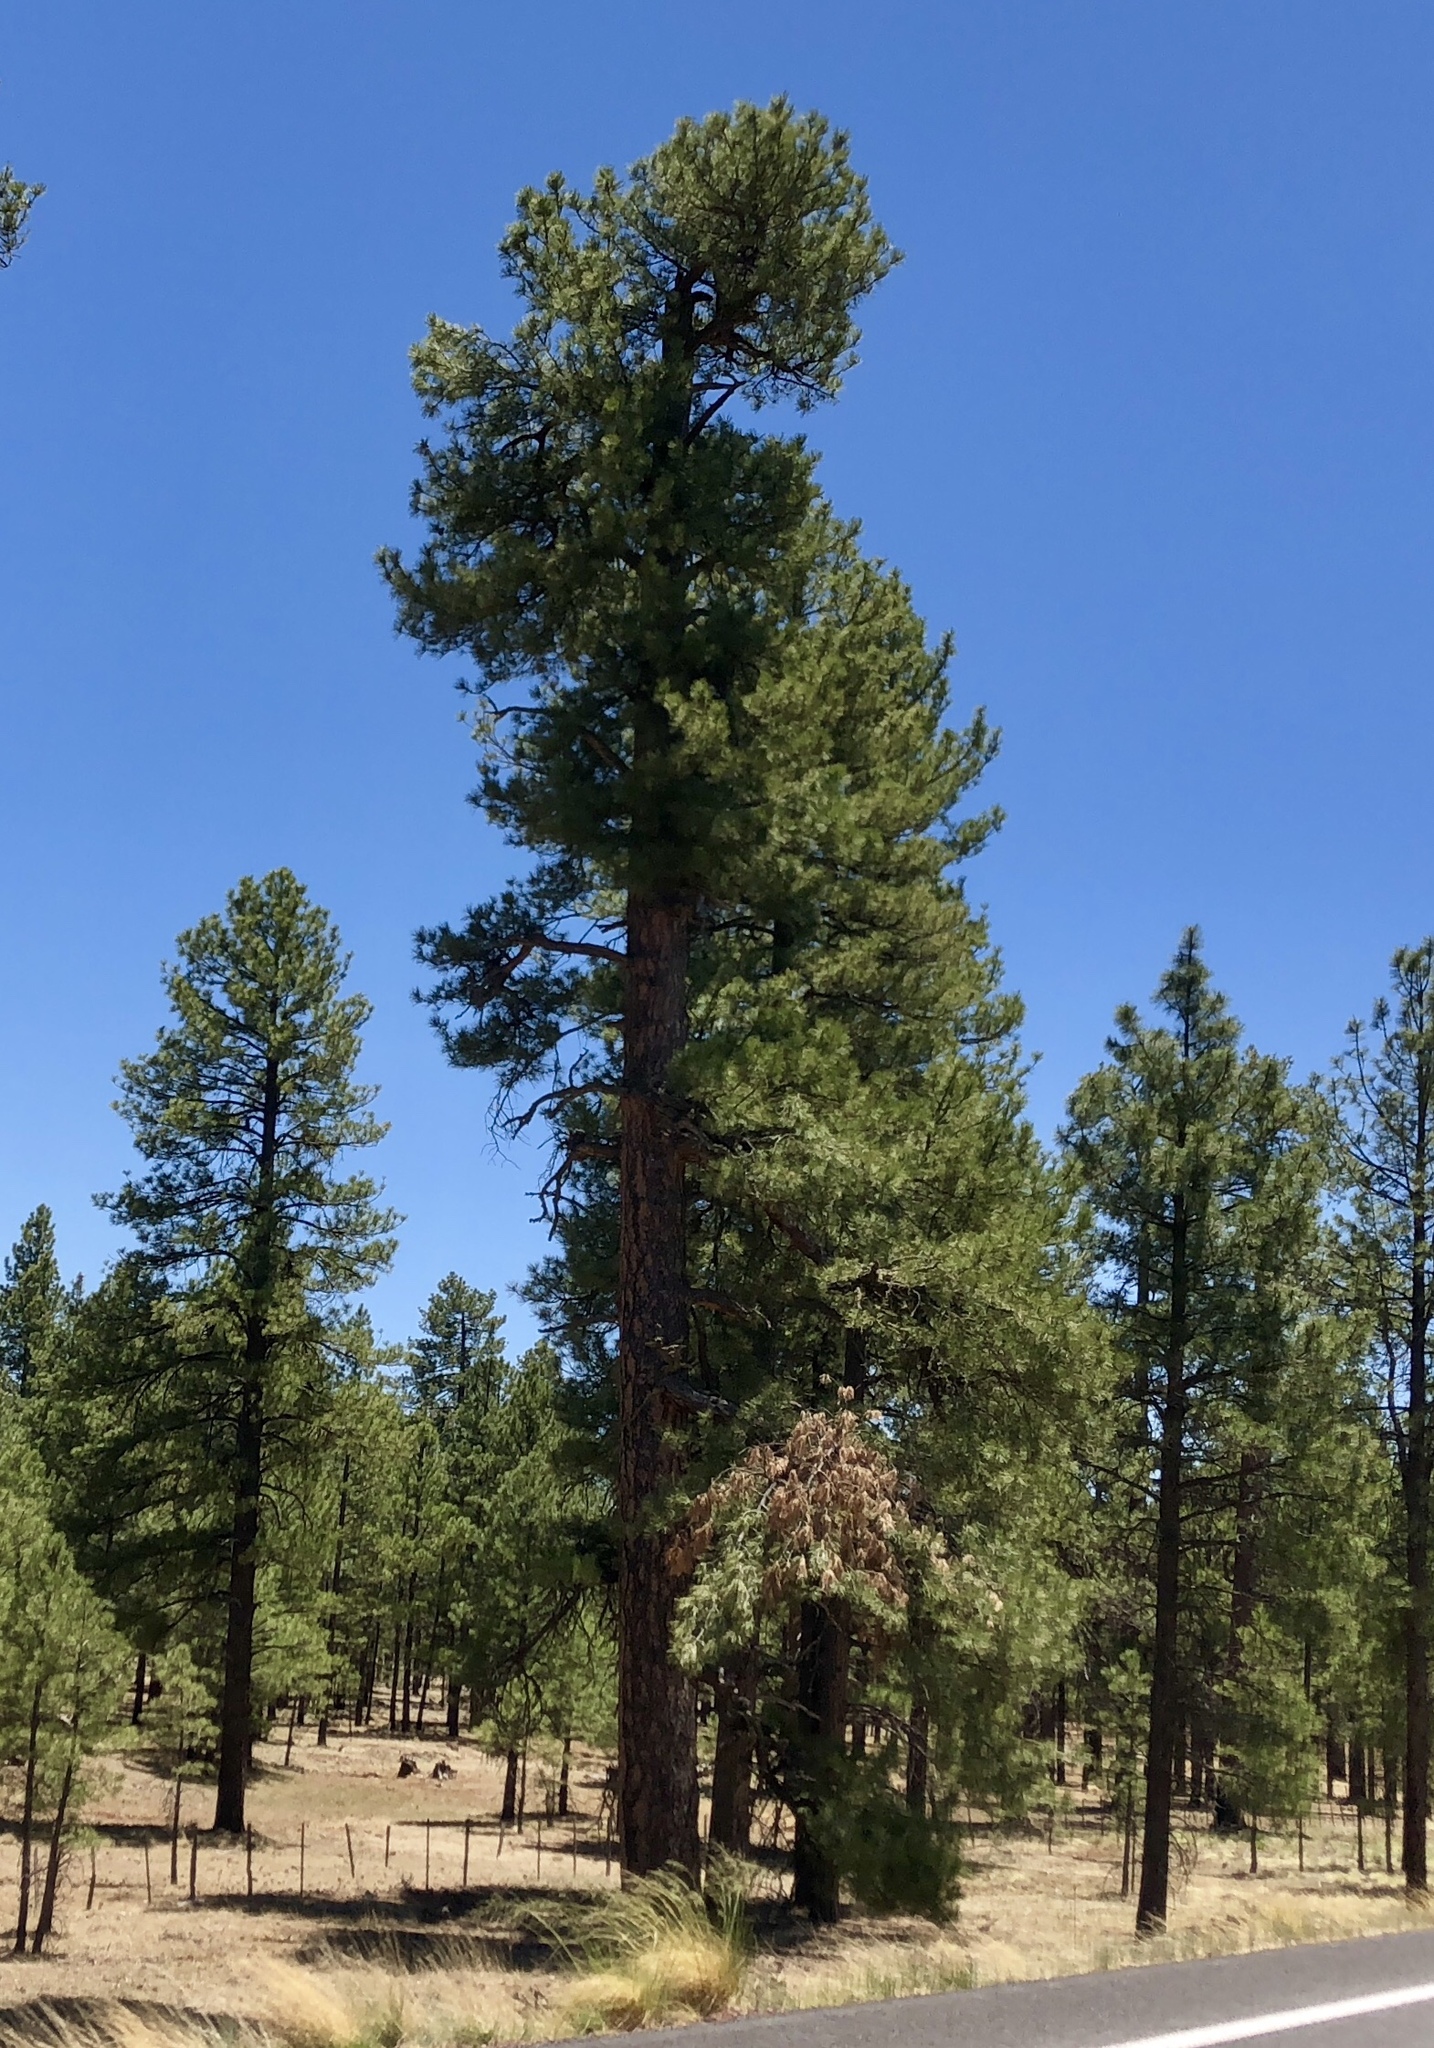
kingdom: Plantae
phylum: Tracheophyta
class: Pinopsida
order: Pinales
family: Pinaceae
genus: Pinus
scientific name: Pinus ponderosa
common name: Western yellow-pine
